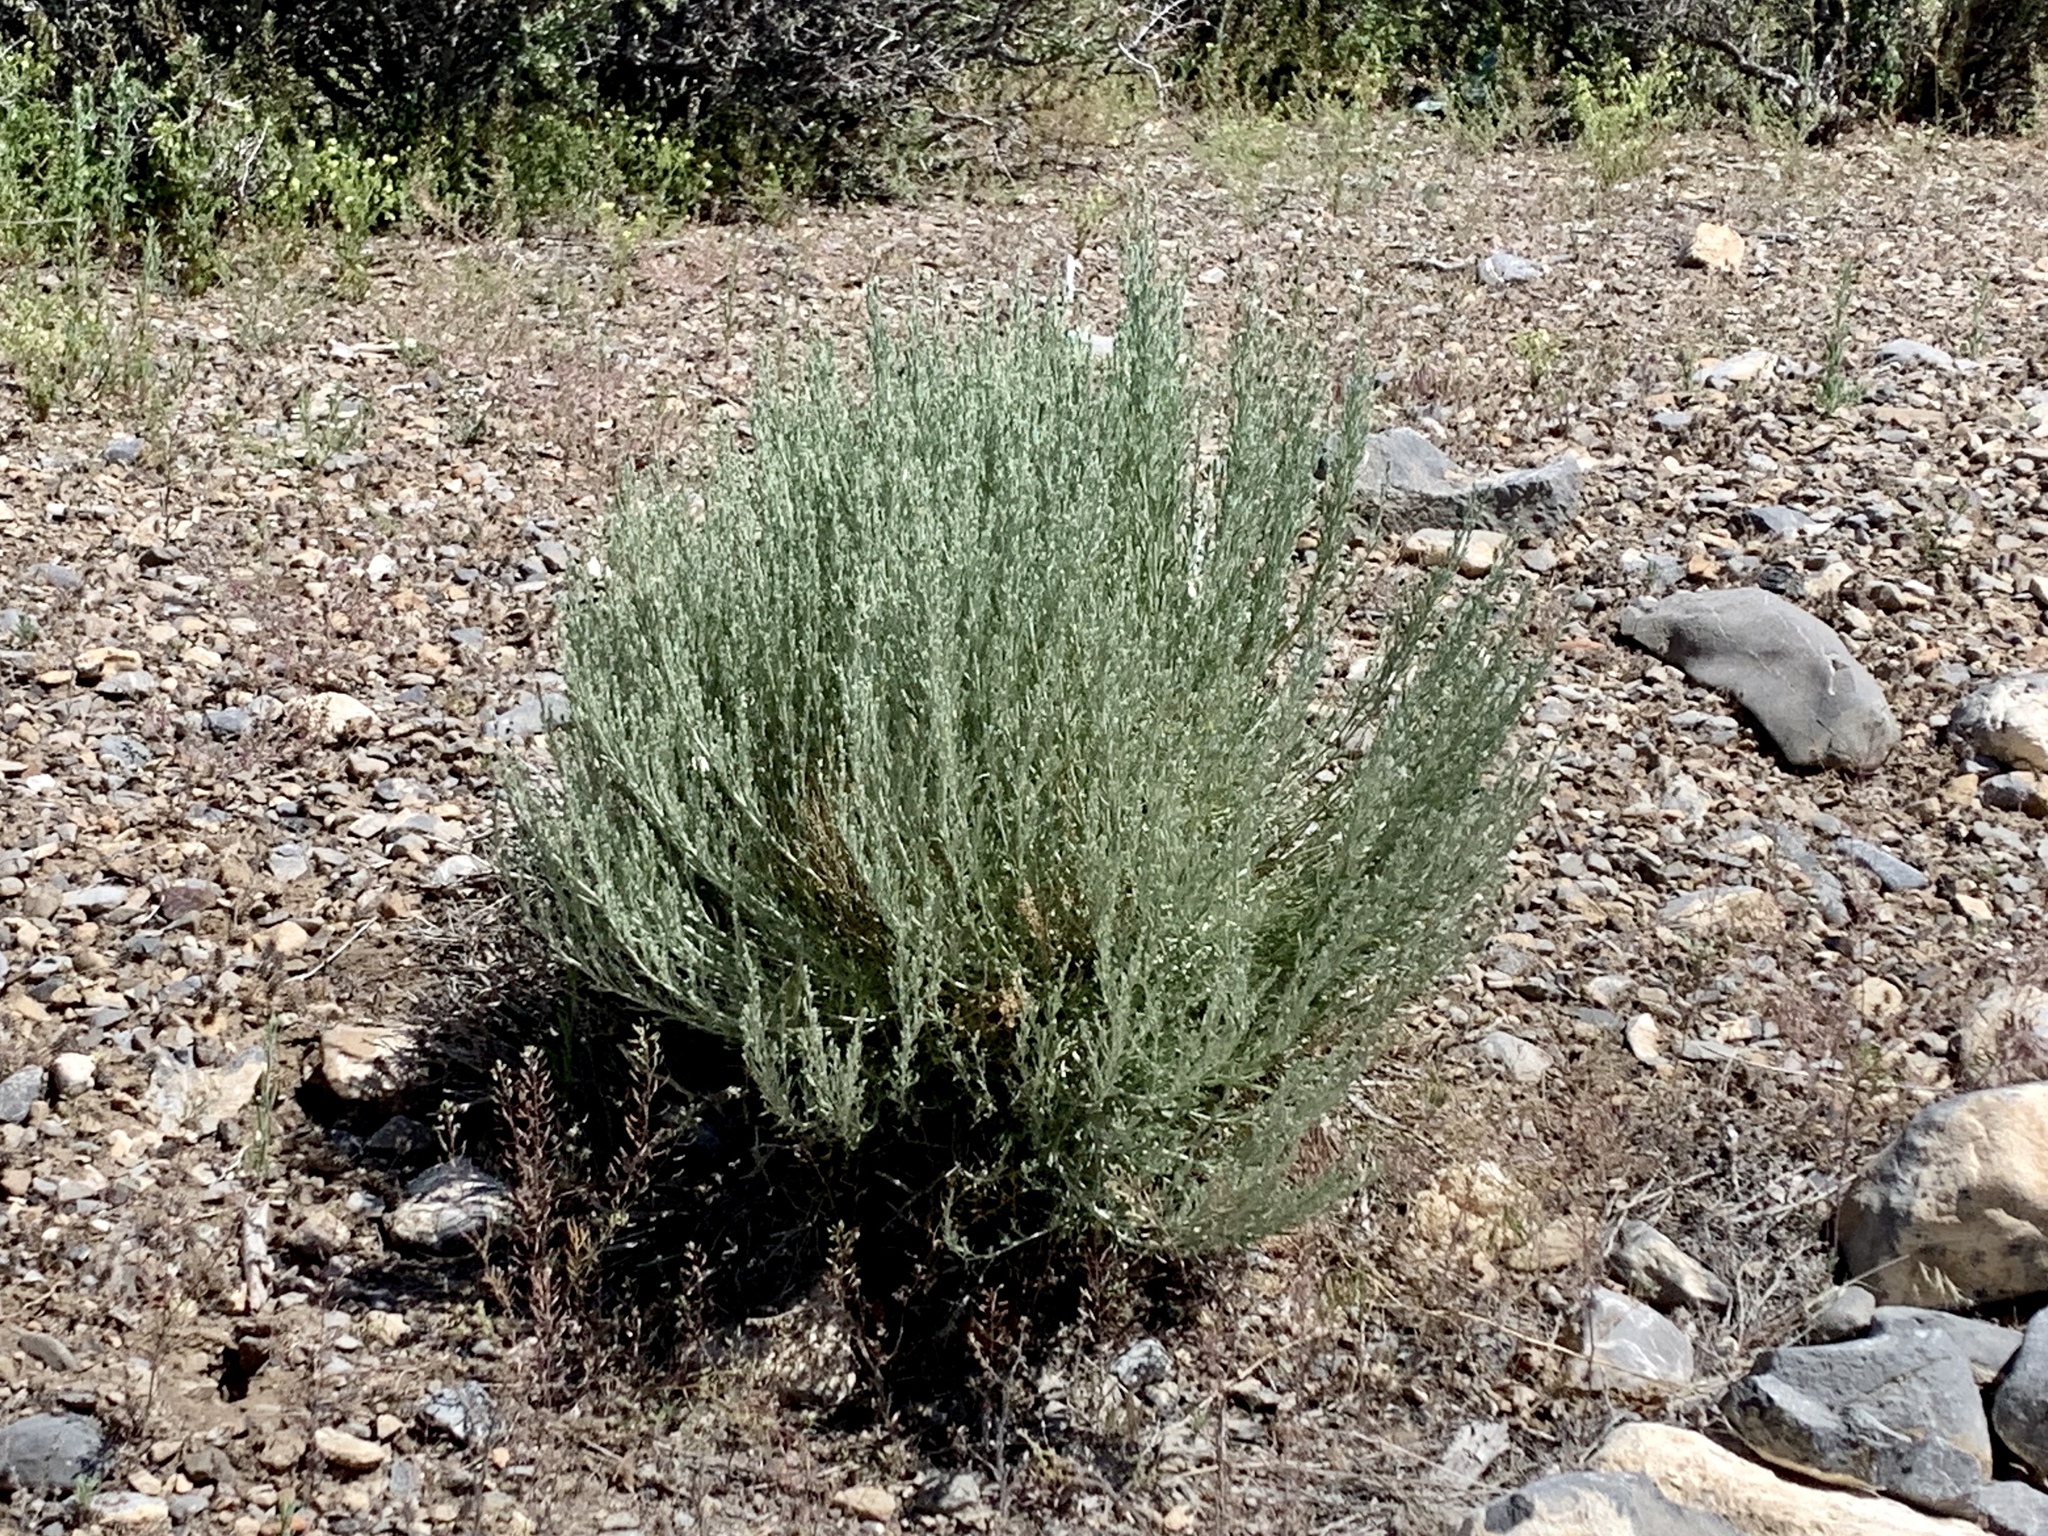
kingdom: Plantae
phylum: Tracheophyta
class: Magnoliopsida
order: Asterales
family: Asteraceae
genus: Artemisia
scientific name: Artemisia tridentata
